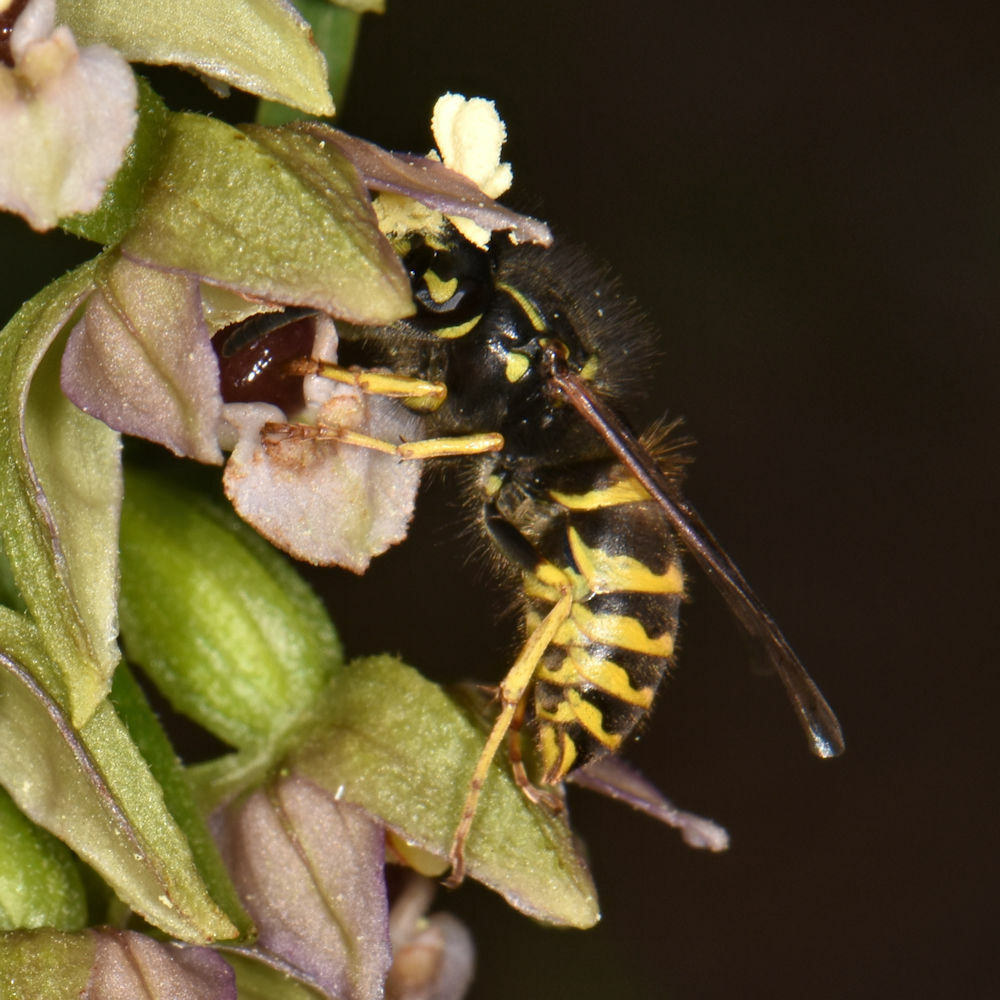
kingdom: Animalia
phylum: Arthropoda
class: Insecta
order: Hymenoptera
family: Vespidae
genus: Vespula
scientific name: Vespula alascensis
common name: Alaska yellowjacket
